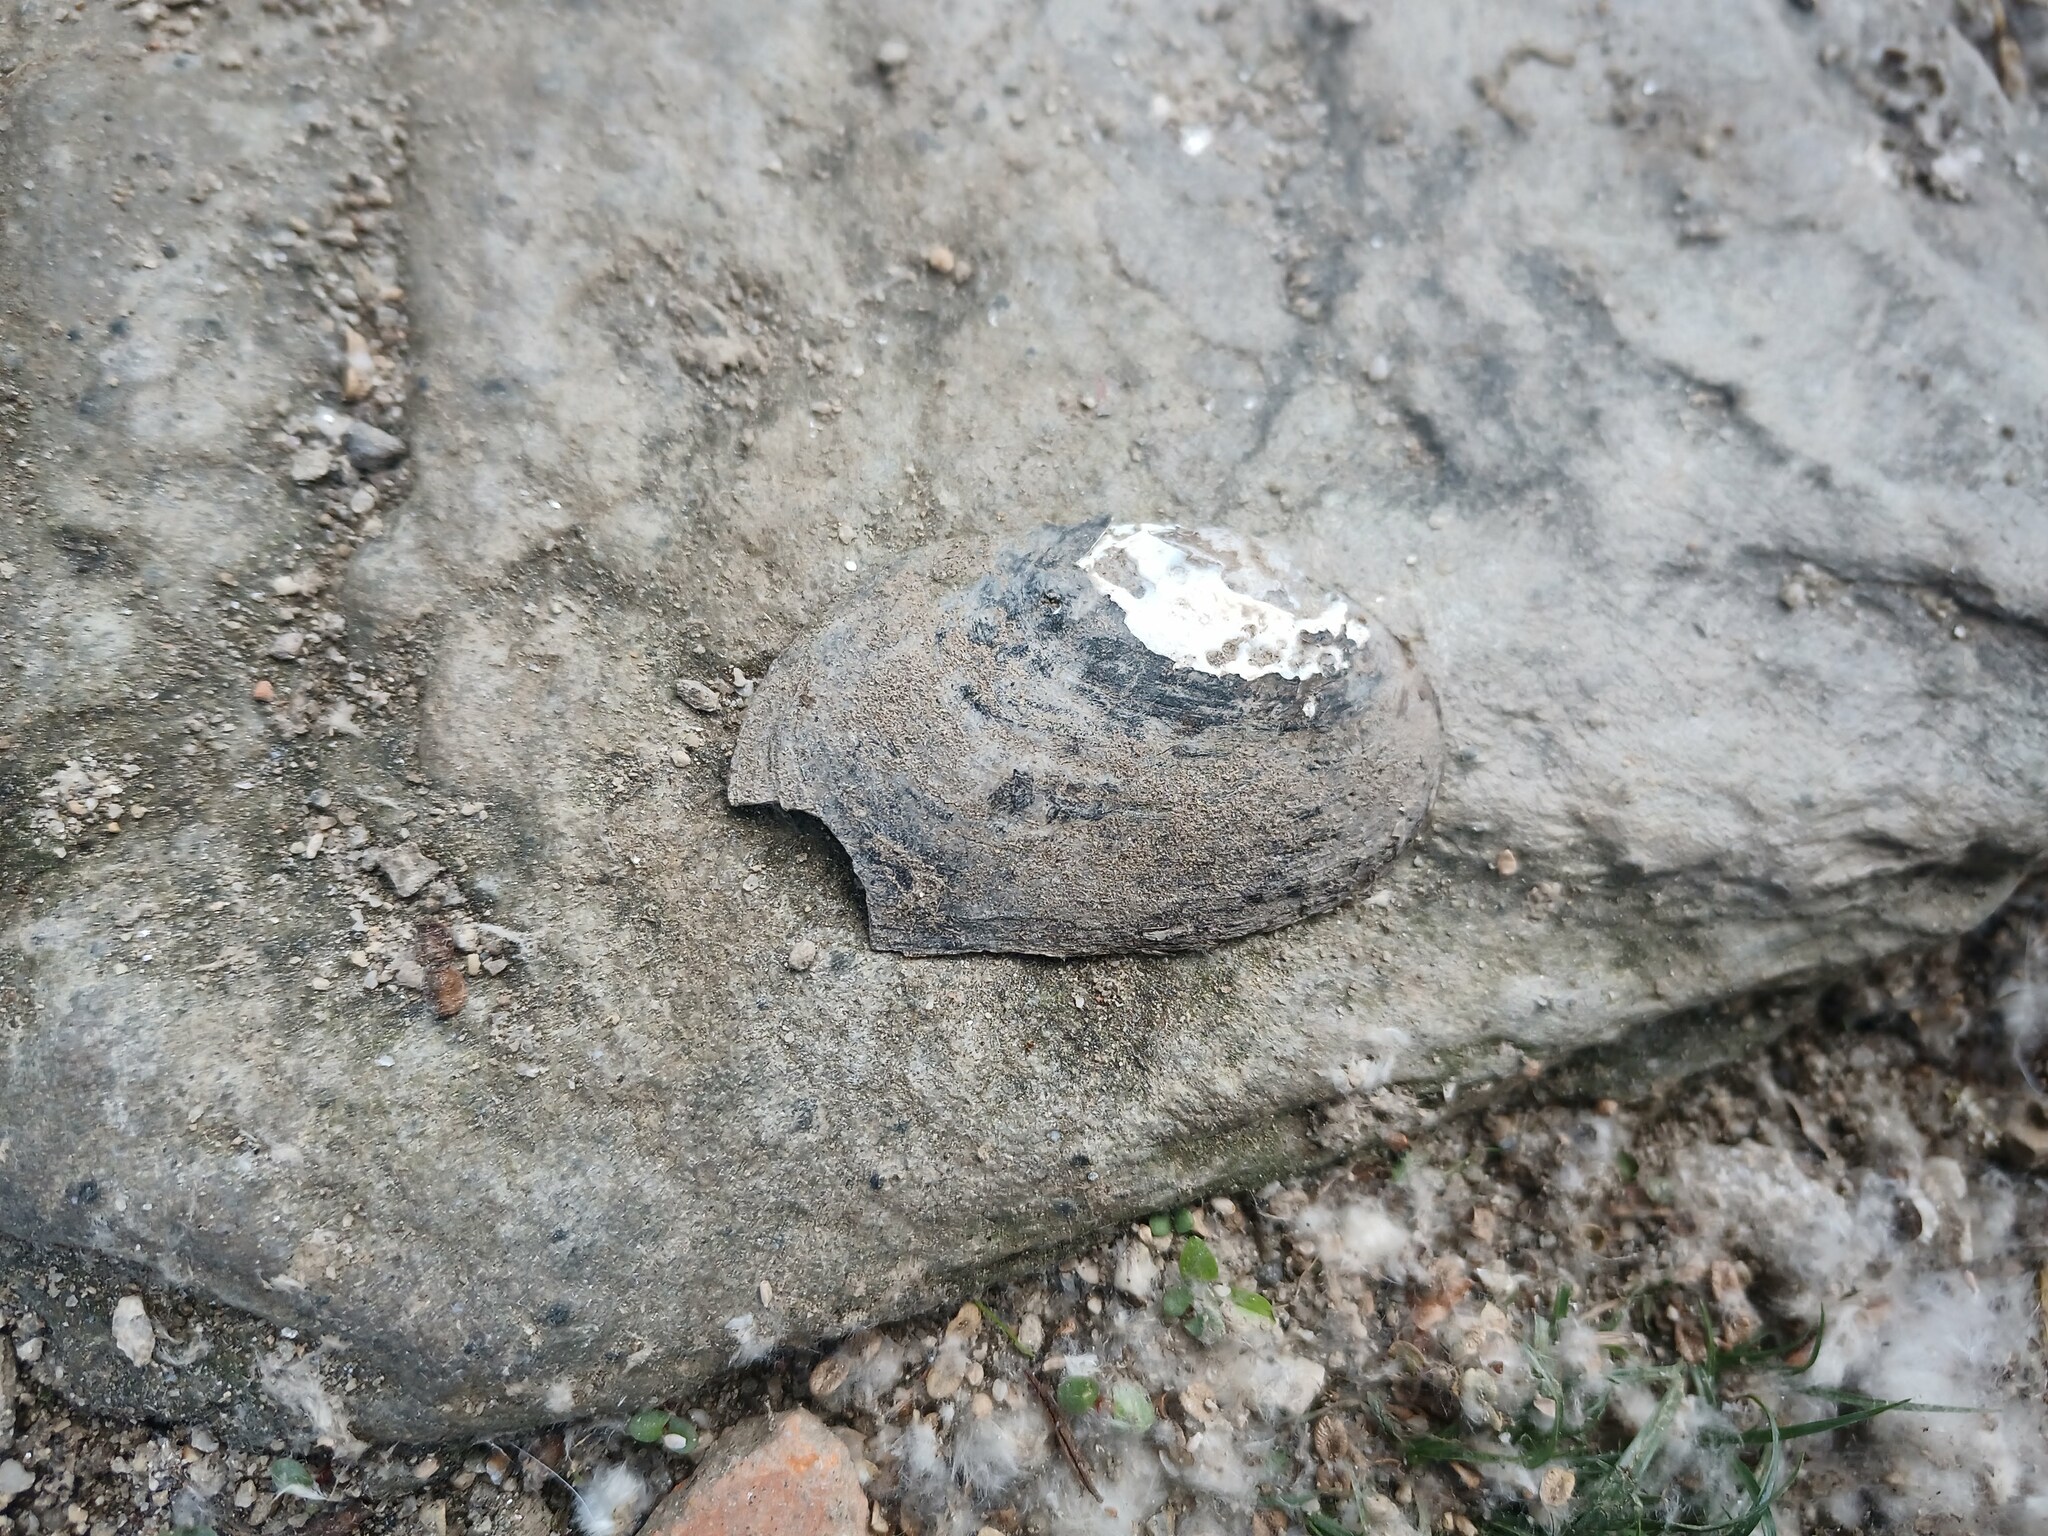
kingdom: Animalia
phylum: Mollusca
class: Bivalvia
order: Unionida
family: Margaritiferidae
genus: Margaritifera
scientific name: Margaritifera margaritifera
